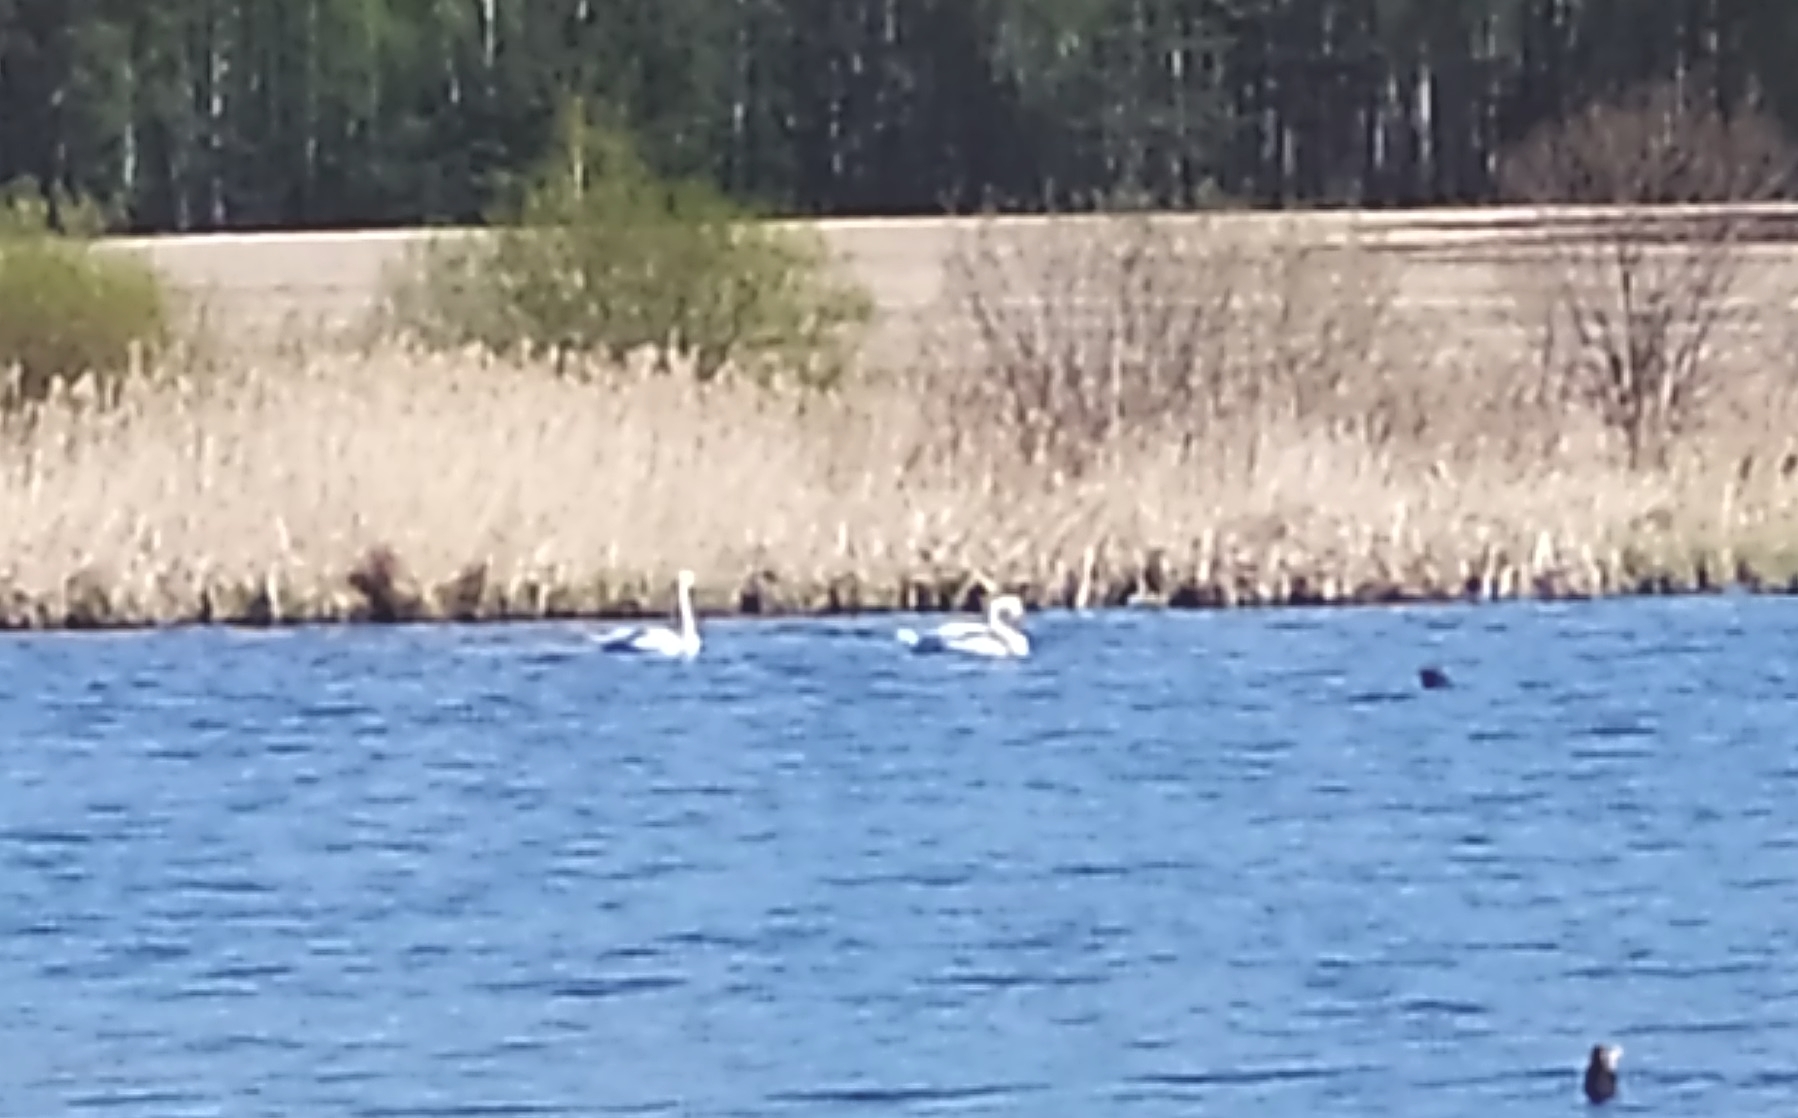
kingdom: Animalia
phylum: Chordata
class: Aves
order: Anseriformes
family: Anatidae
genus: Cygnus
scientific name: Cygnus olor
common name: Mute swan
